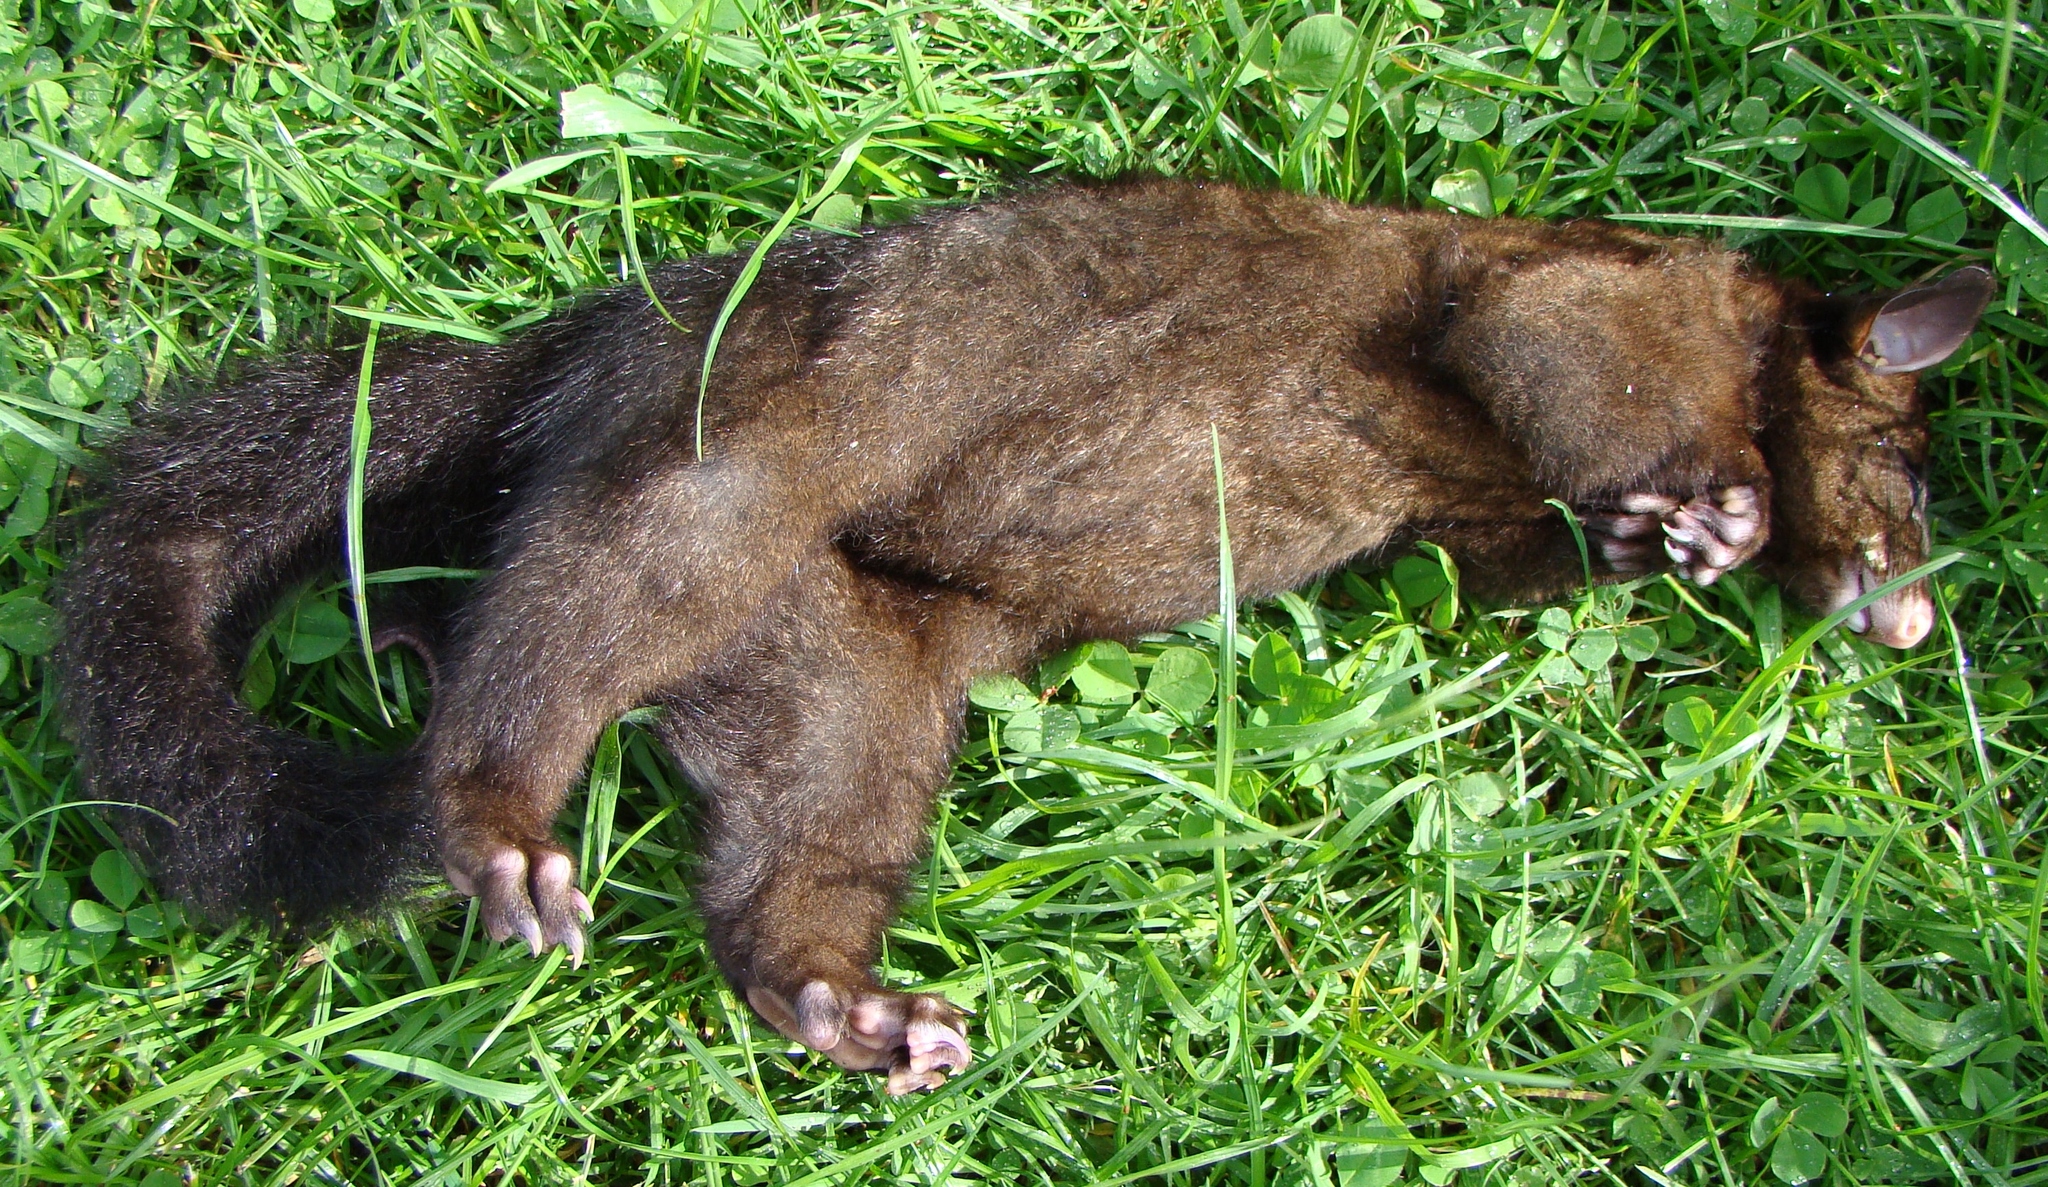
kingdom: Animalia
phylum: Chordata
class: Mammalia
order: Diprotodontia
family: Phalangeridae
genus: Trichosurus
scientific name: Trichosurus vulpecula
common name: Common brushtail
